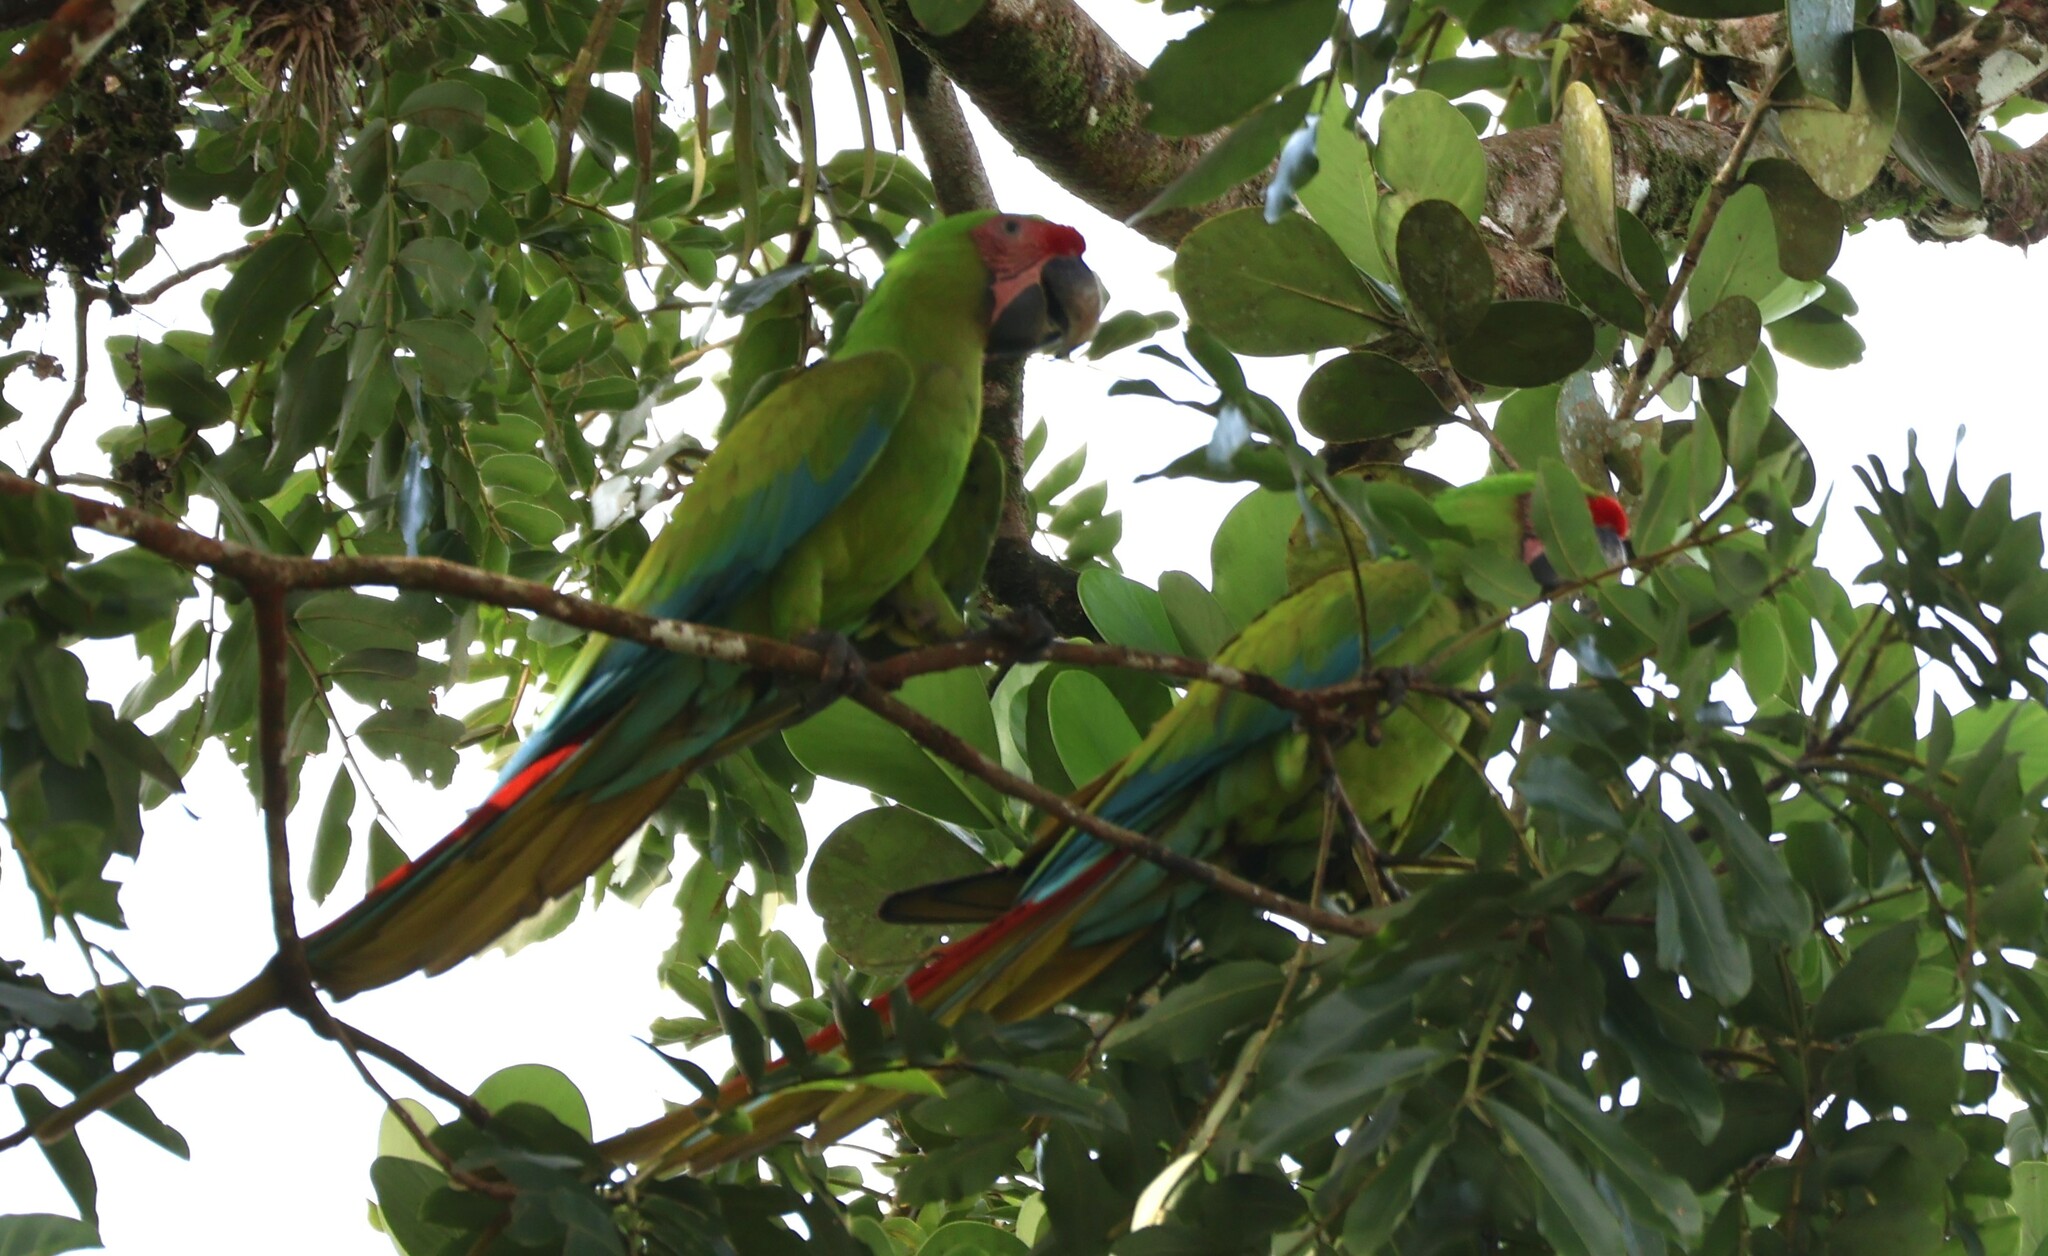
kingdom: Animalia
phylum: Chordata
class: Aves
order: Psittaciformes
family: Psittacidae
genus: Ara
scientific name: Ara ambiguus
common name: Great green macaw
